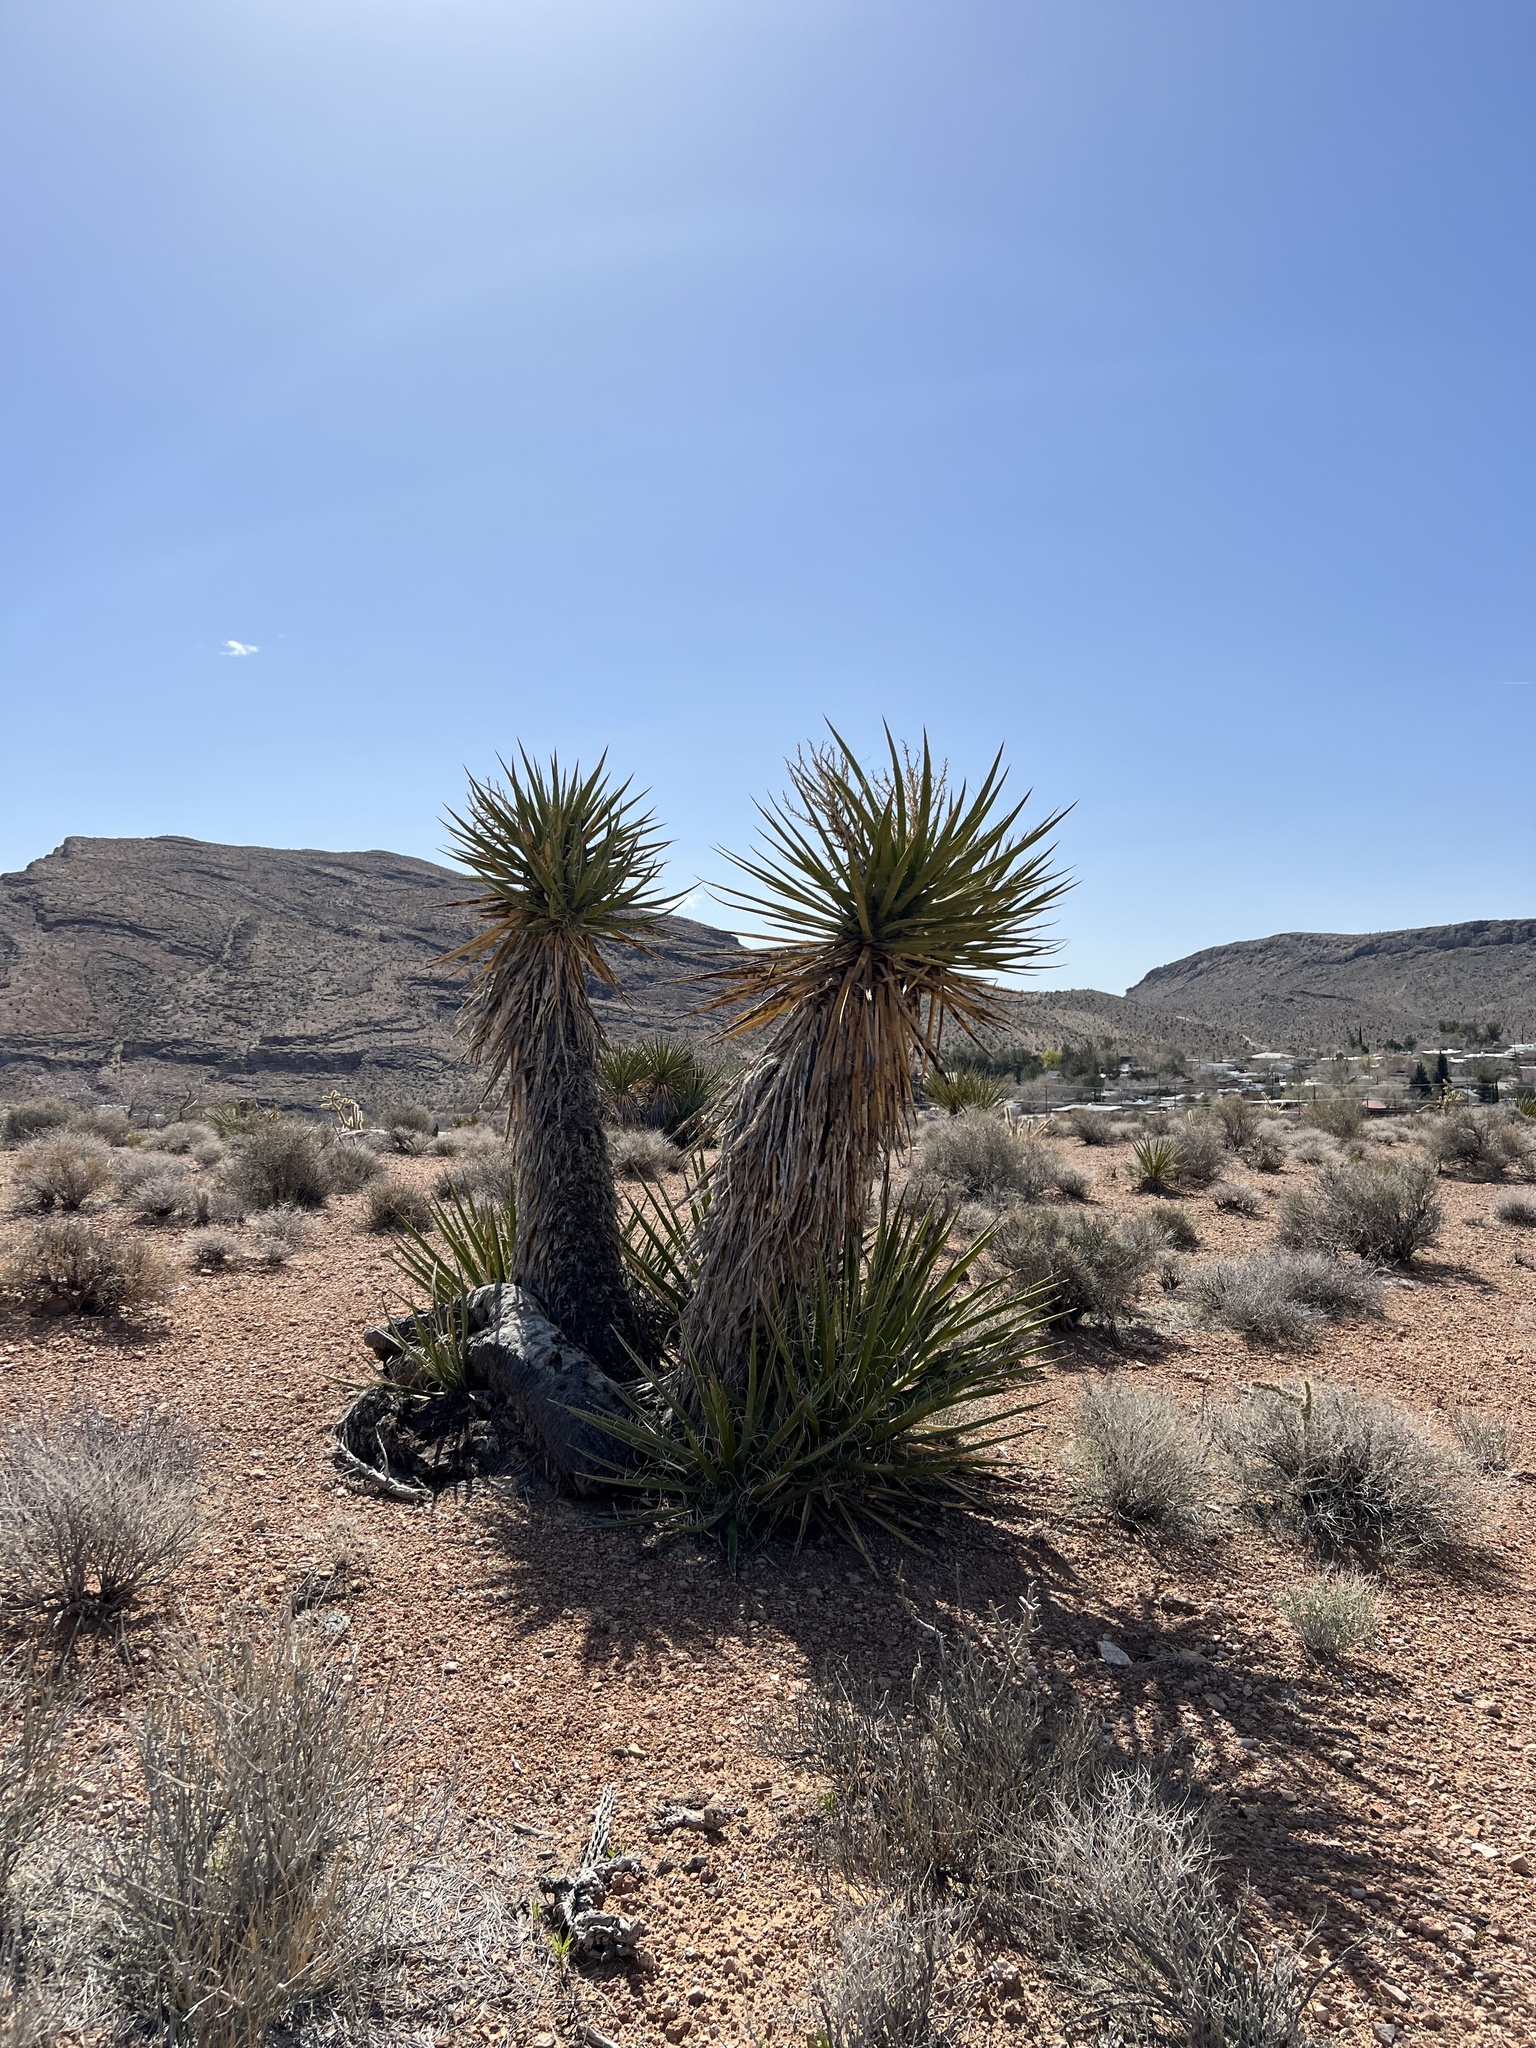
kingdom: Plantae
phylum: Tracheophyta
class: Liliopsida
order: Asparagales
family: Asparagaceae
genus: Yucca
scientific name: Yucca schidigera
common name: Mojave yucca
